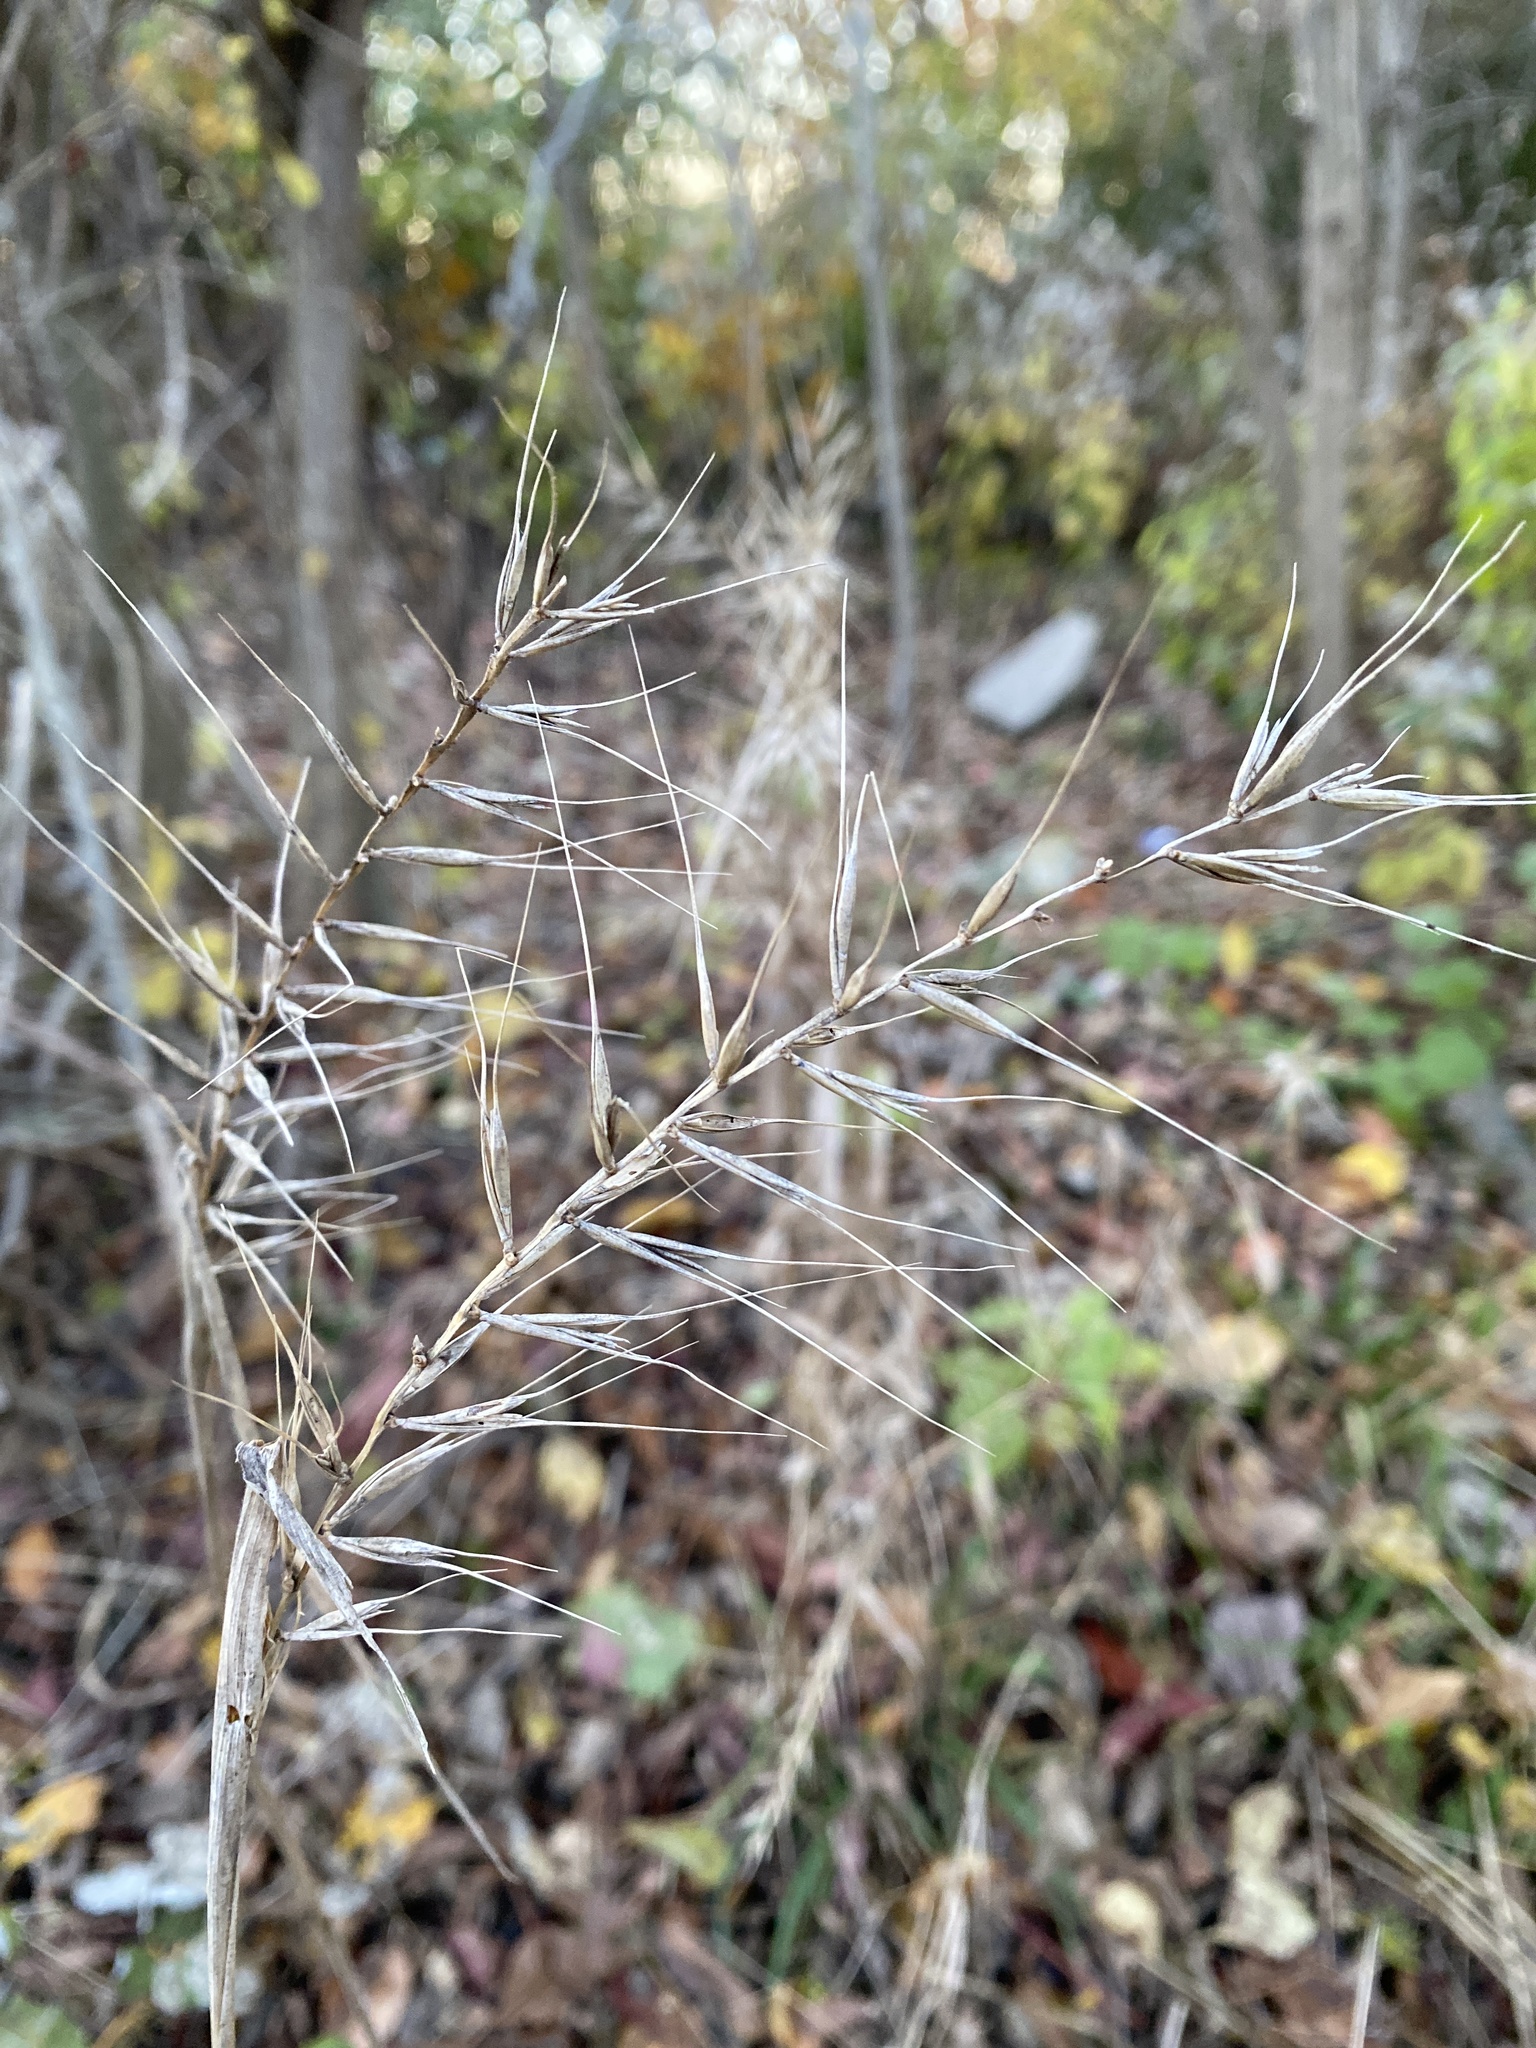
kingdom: Plantae
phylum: Tracheophyta
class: Liliopsida
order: Poales
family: Poaceae
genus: Elymus
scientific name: Elymus hystrix
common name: Bottlebrush grass
